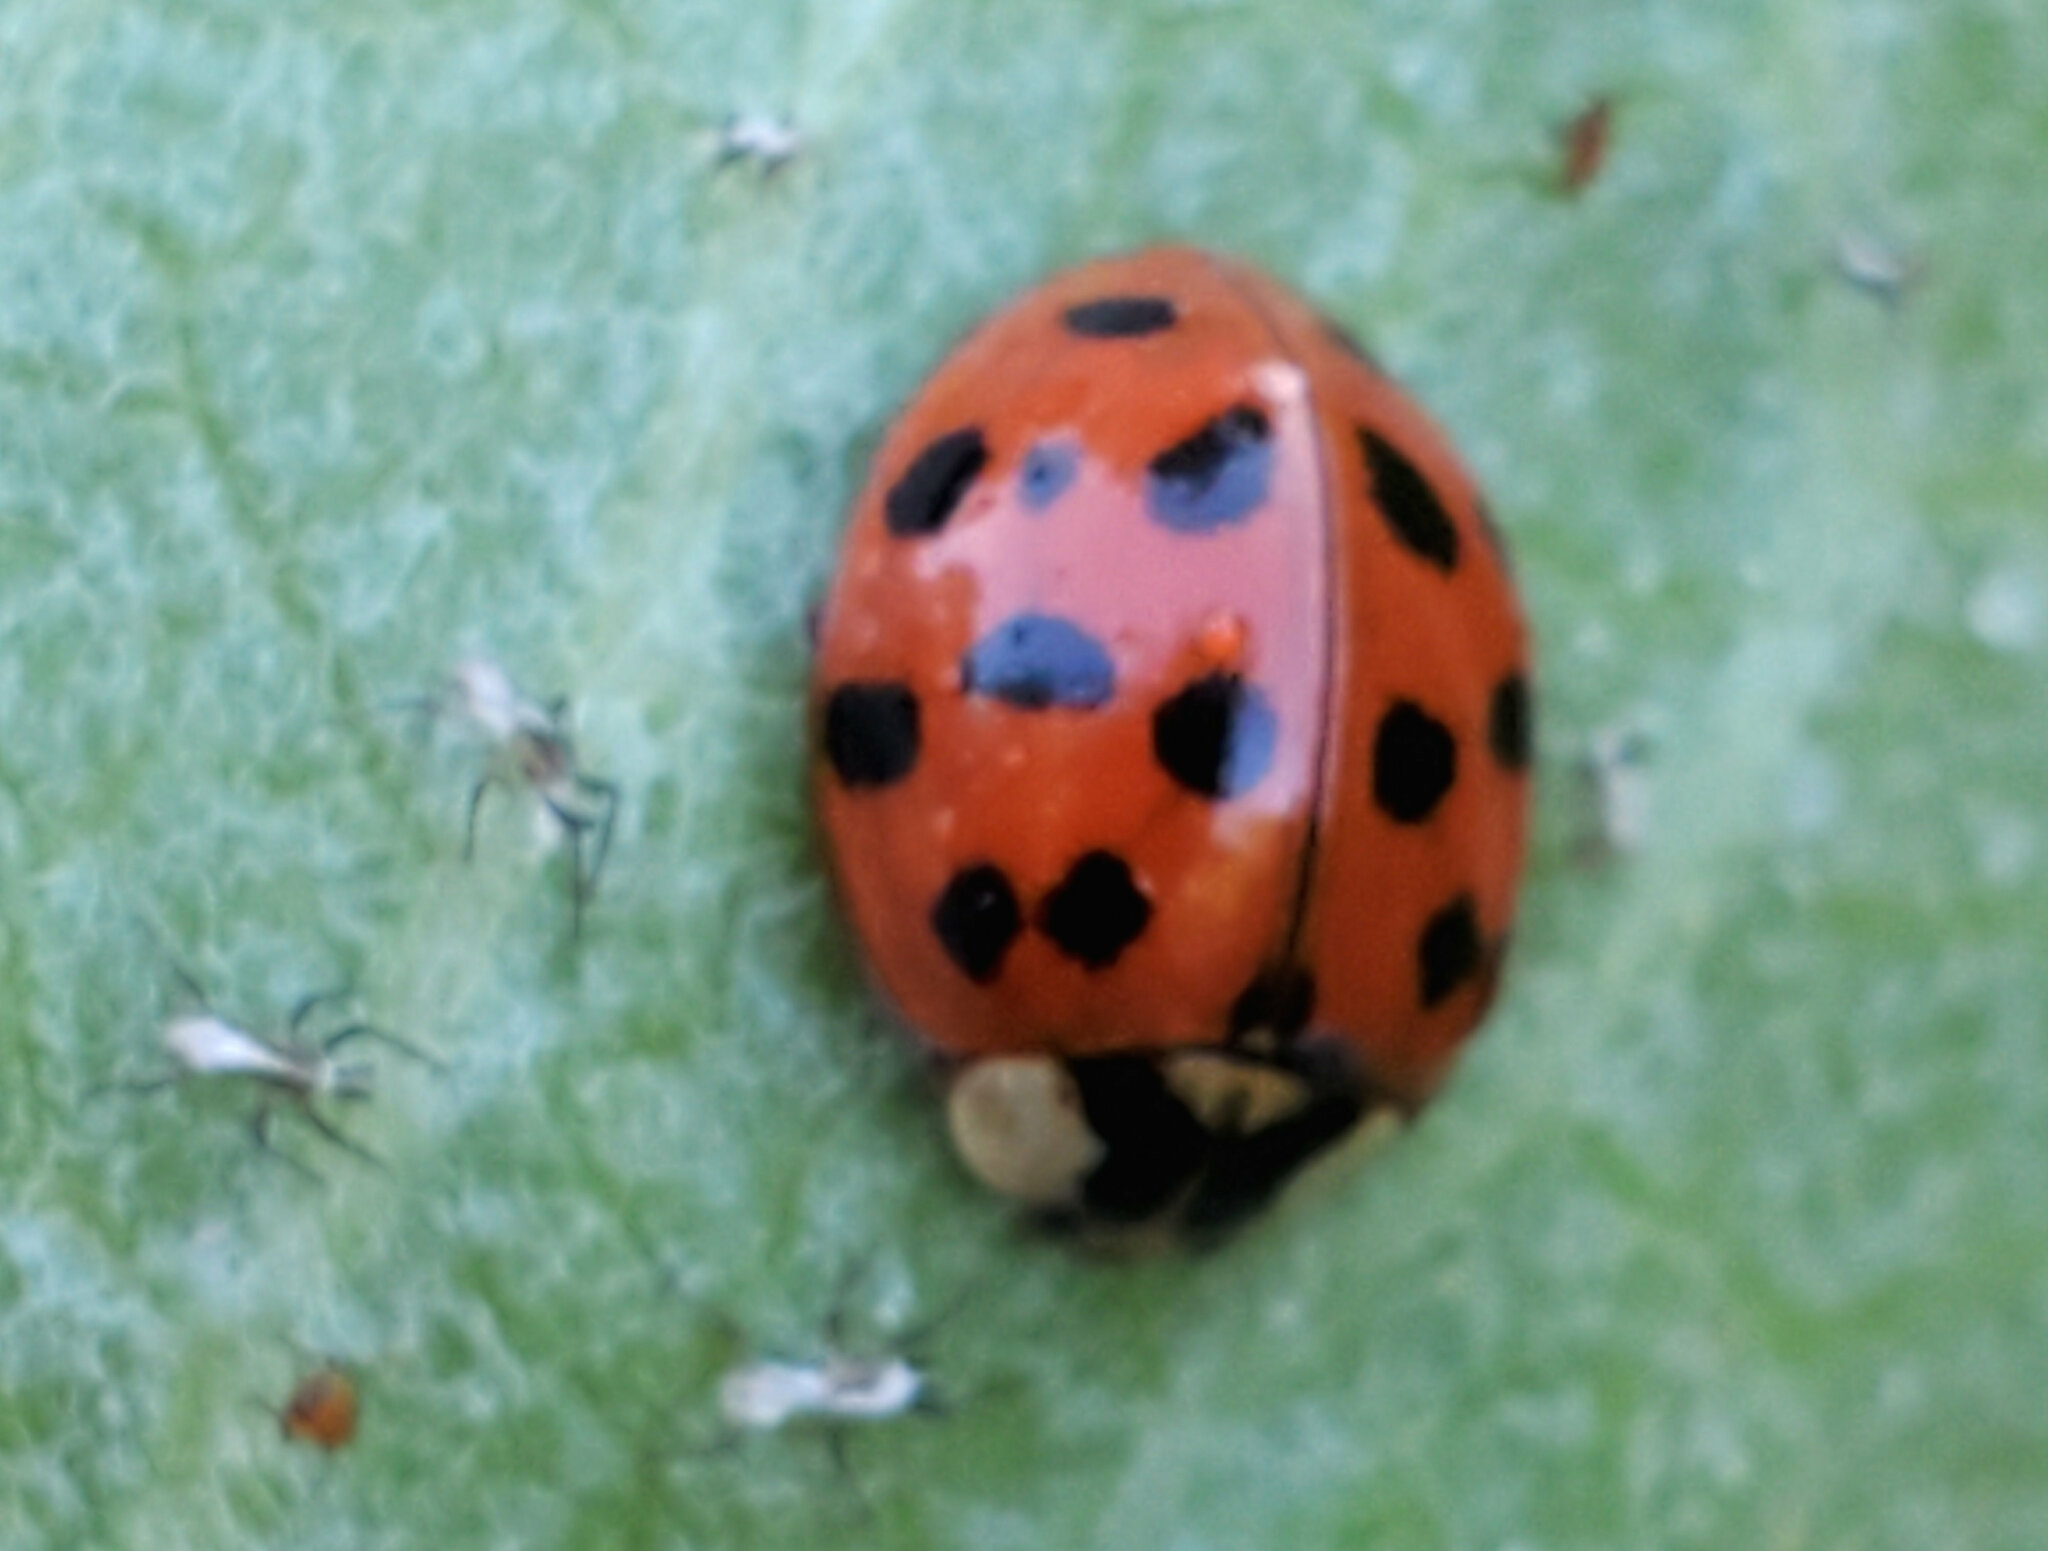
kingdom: Animalia
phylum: Arthropoda
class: Insecta
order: Coleoptera
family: Coccinellidae
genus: Harmonia
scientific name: Harmonia axyridis
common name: Harlequin ladybird
